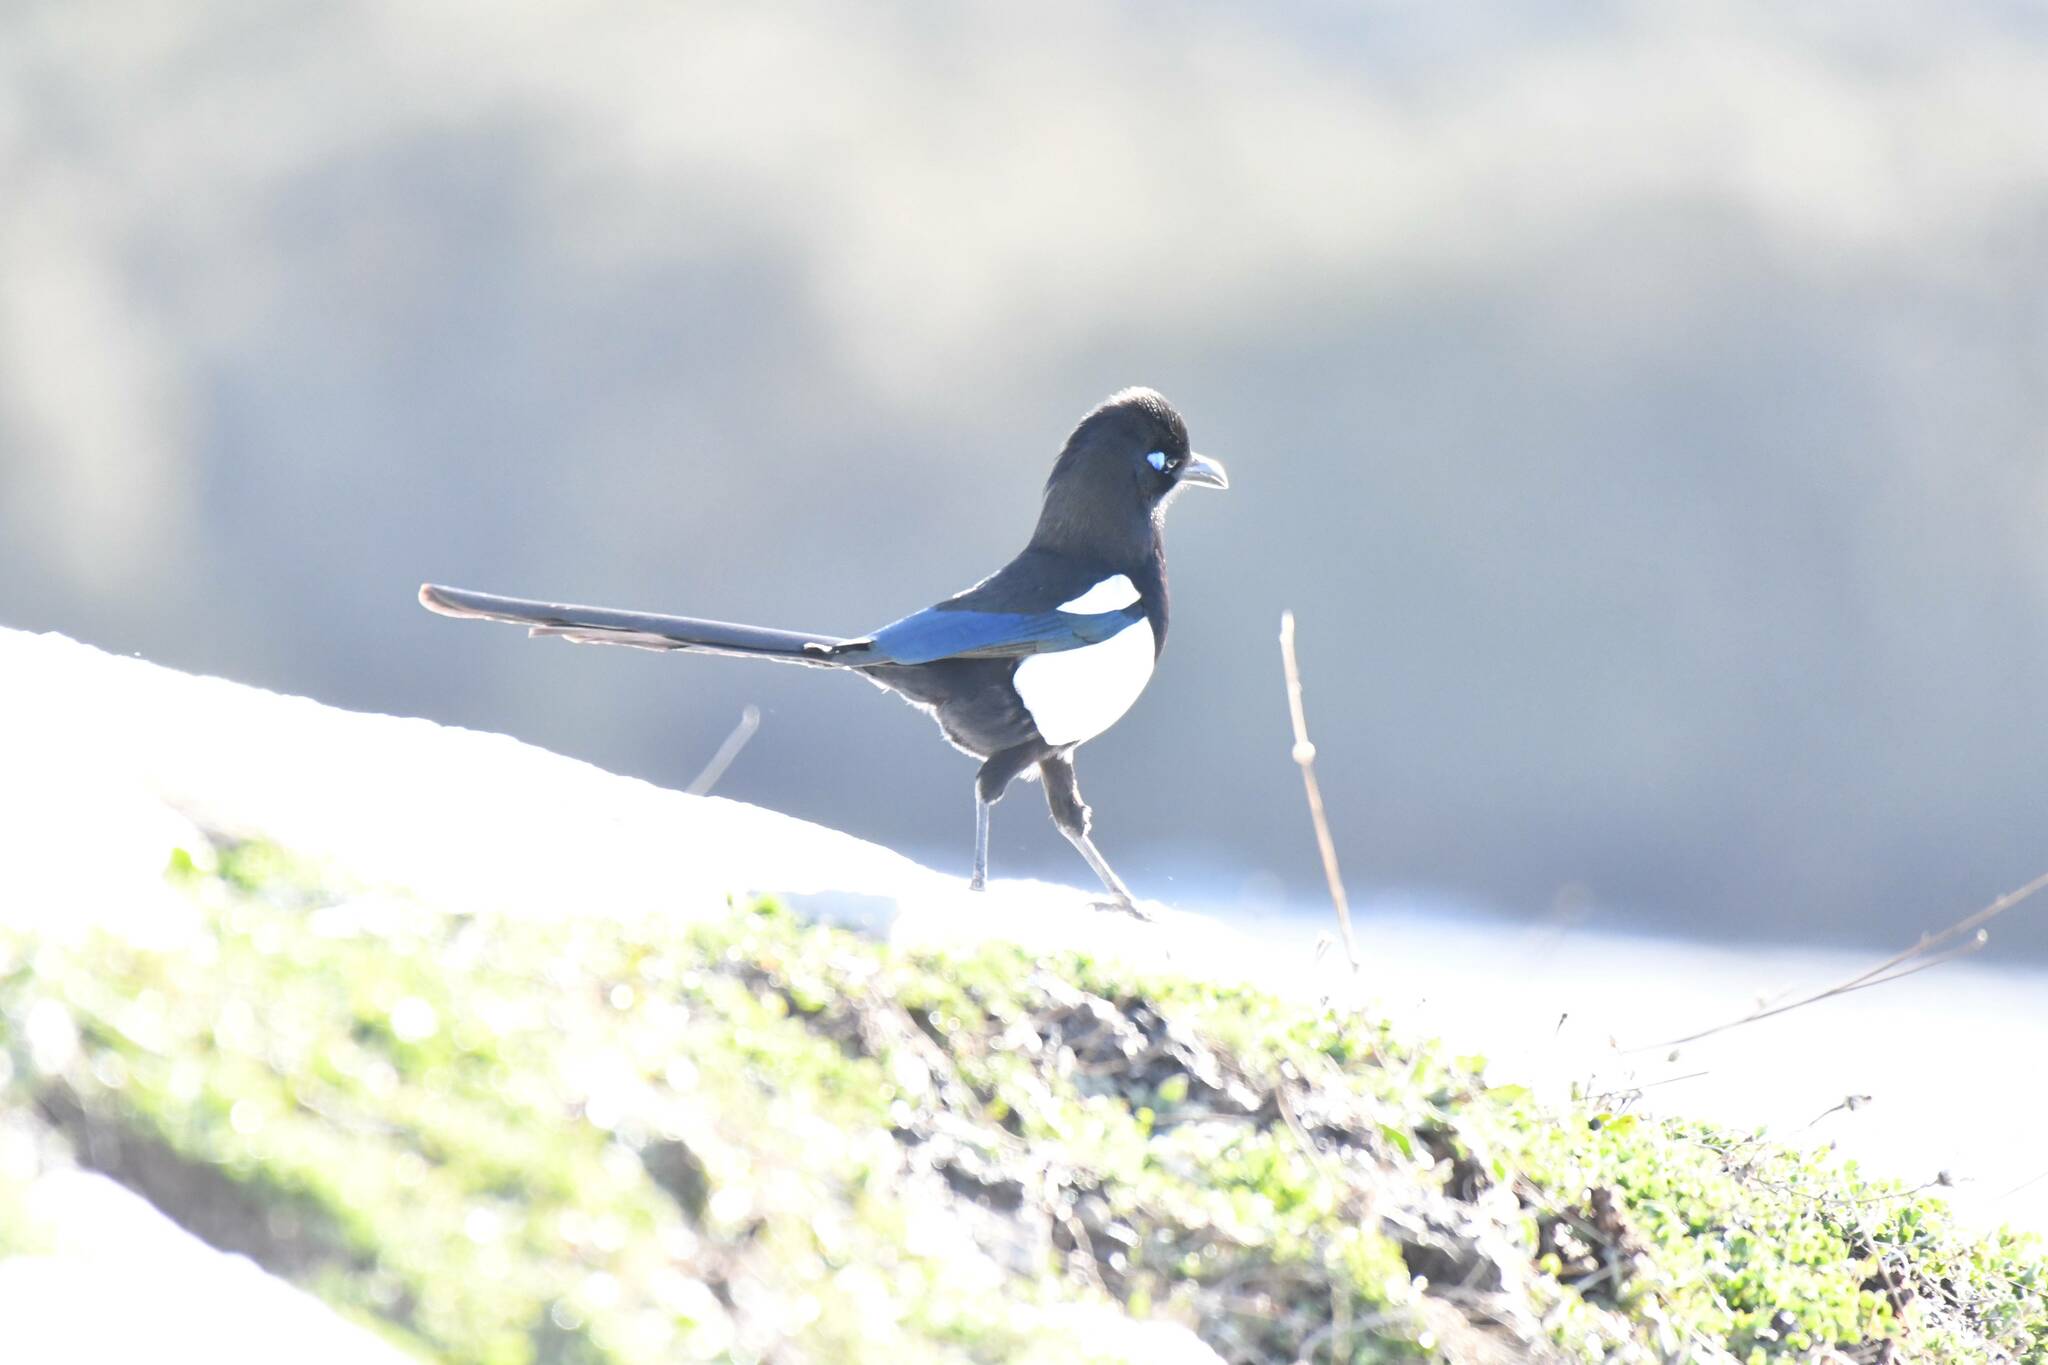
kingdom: Animalia
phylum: Chordata
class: Aves
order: Passeriformes
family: Corvidae
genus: Pica
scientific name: Pica mauritanica
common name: Maghreb magpie
